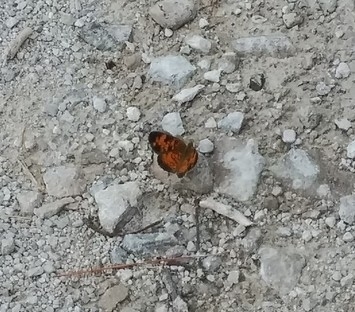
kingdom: Animalia
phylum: Arthropoda
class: Insecta
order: Lepidoptera
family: Nymphalidae
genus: Phyciodes
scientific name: Phyciodes
